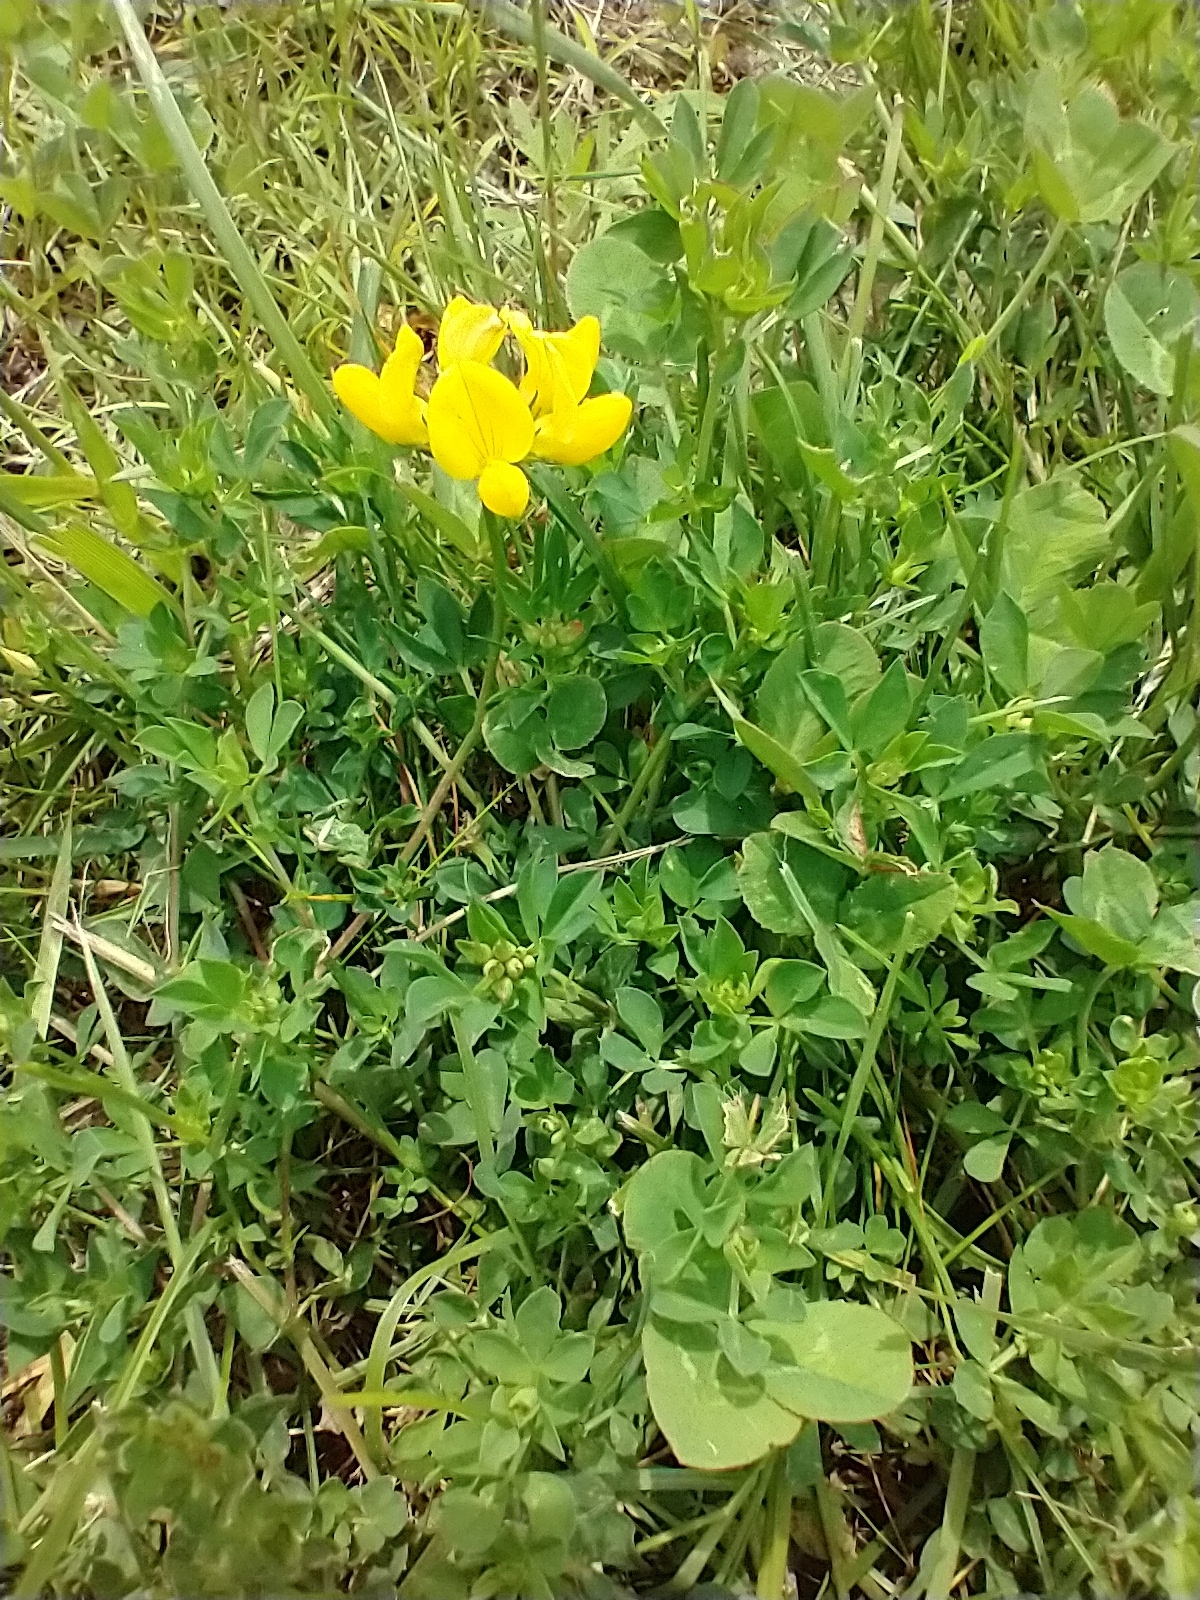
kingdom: Plantae
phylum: Tracheophyta
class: Magnoliopsida
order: Fabales
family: Fabaceae
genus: Lotus
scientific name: Lotus corniculatus
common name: Common bird's-foot-trefoil
